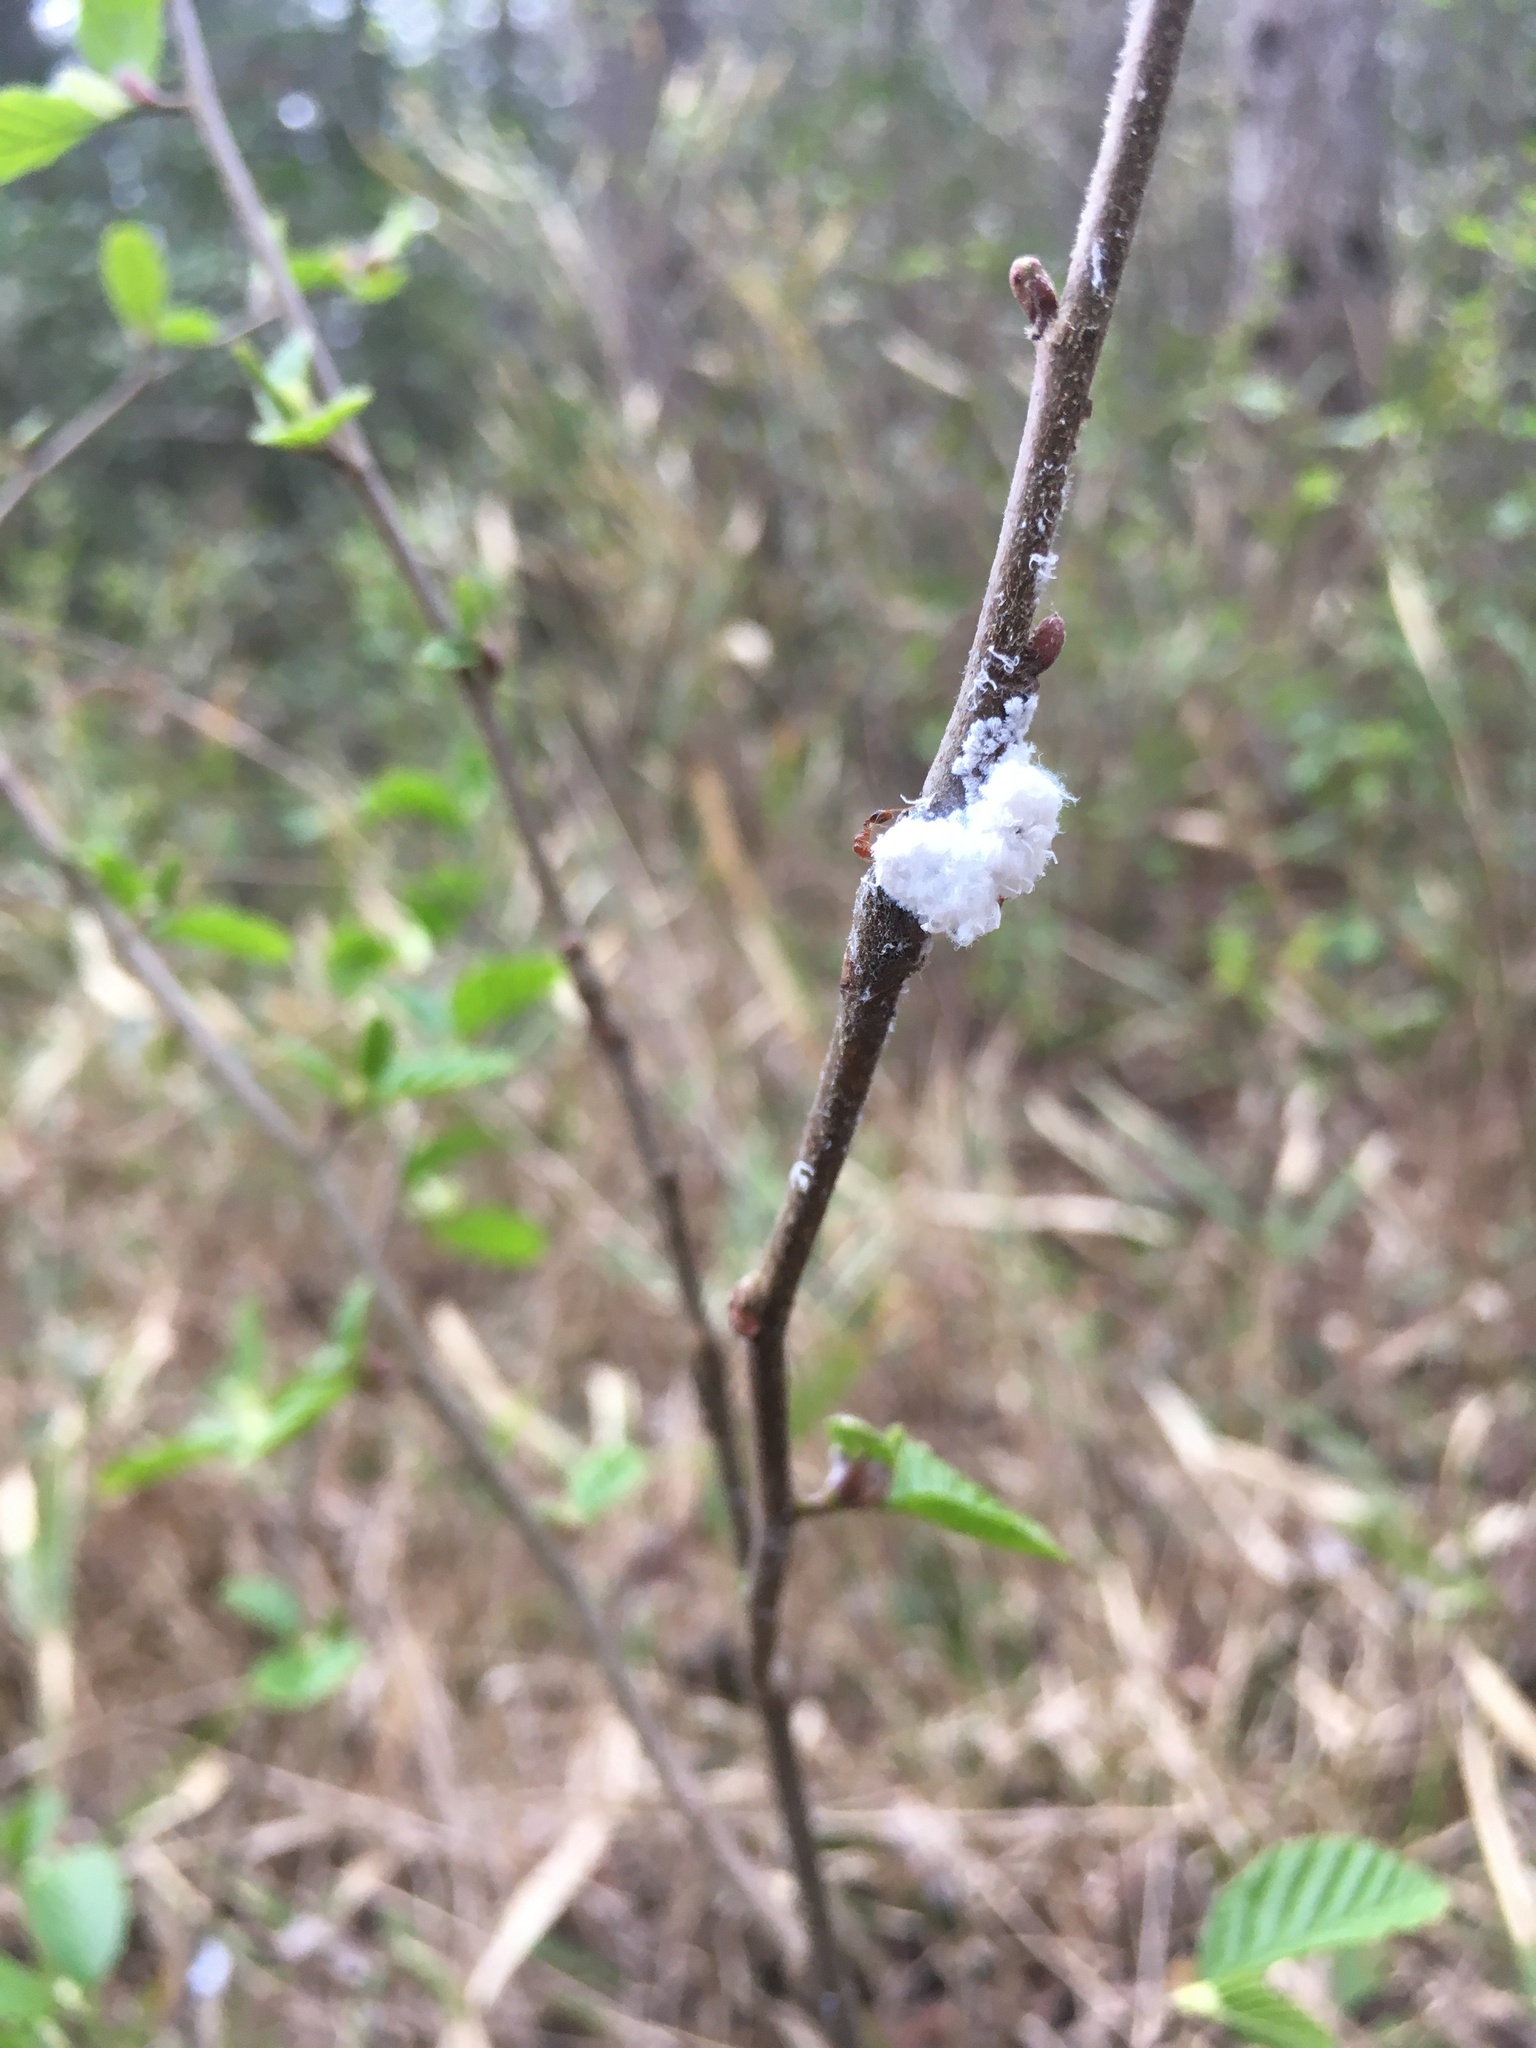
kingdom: Animalia
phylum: Arthropoda
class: Insecta
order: Hemiptera
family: Aphididae
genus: Prociphilus
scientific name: Prociphilus tessellatus
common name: Woolly alder aphid
